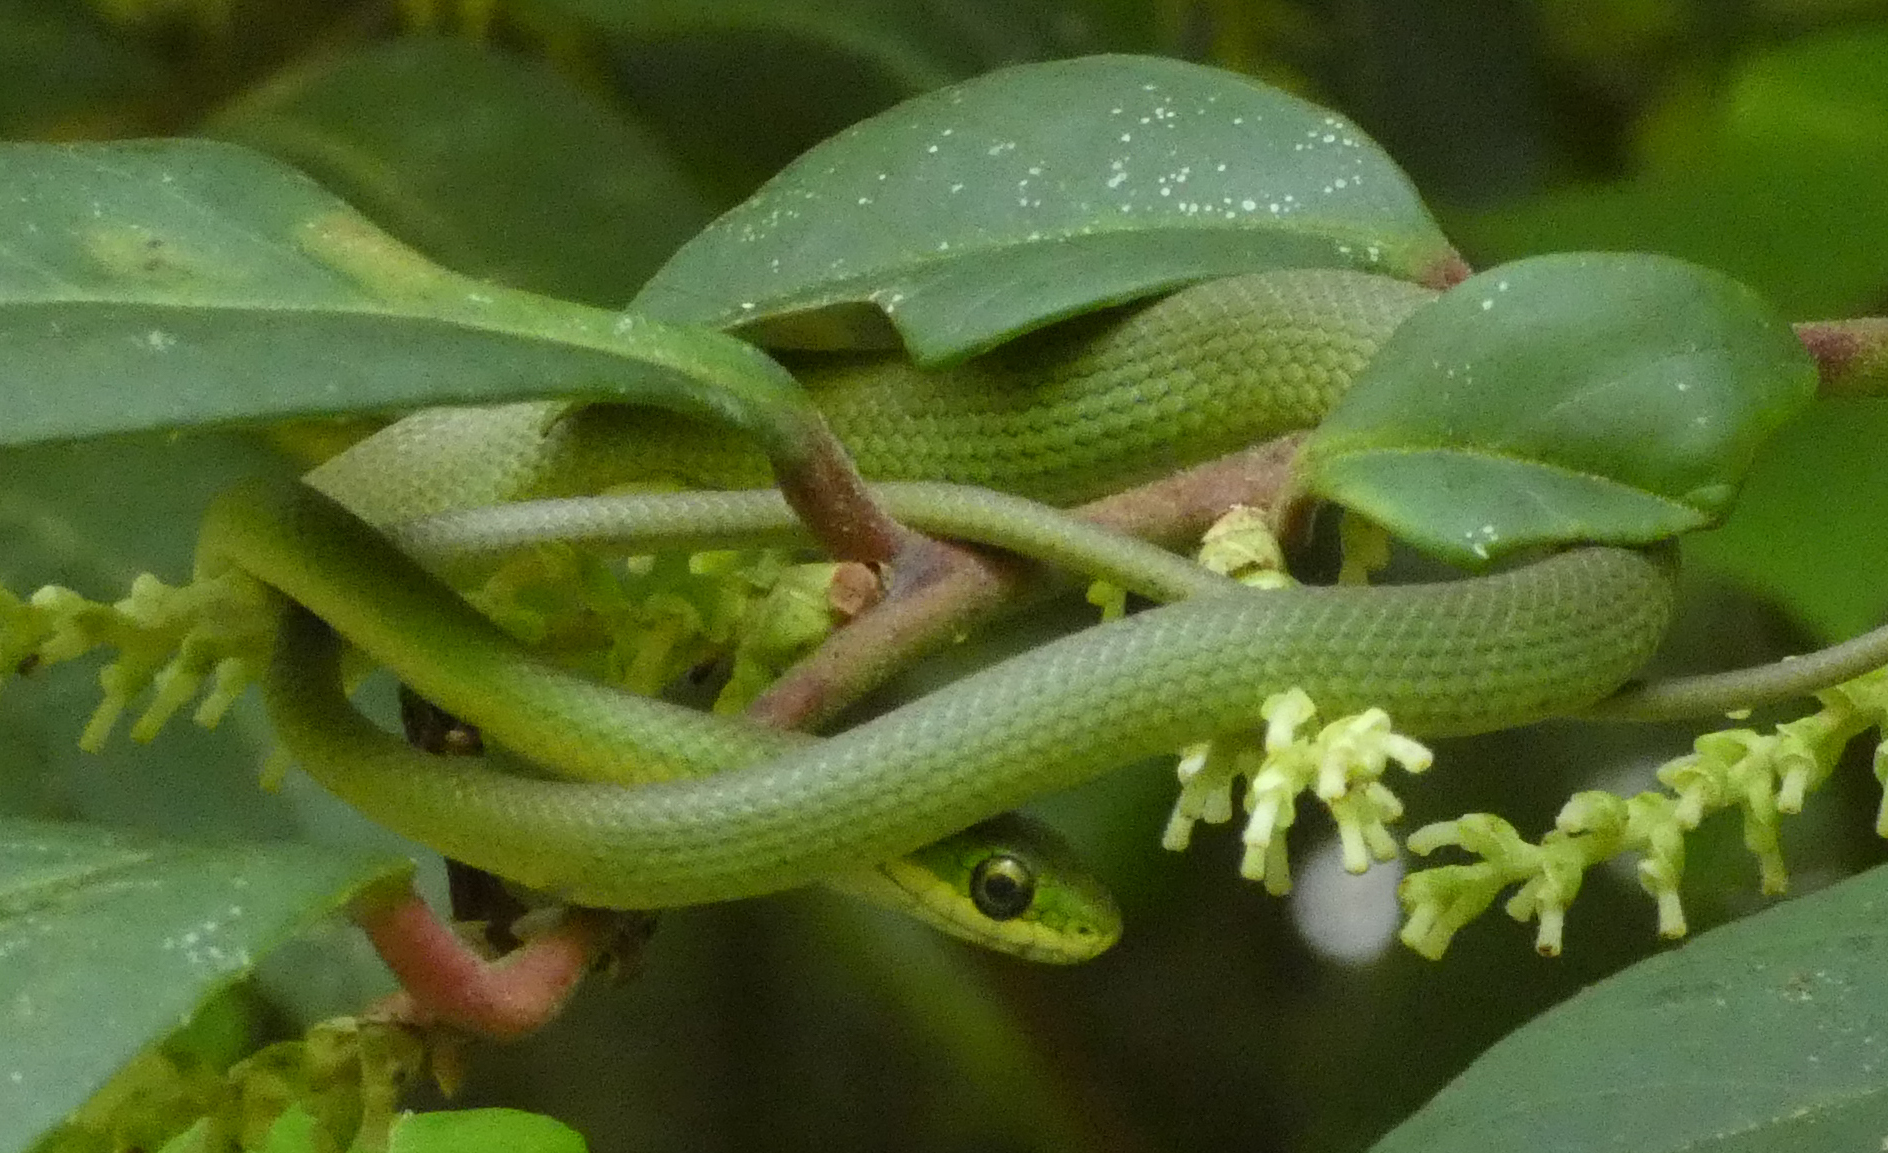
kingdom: Animalia
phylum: Chordata
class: Squamata
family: Colubridae
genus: Opheodrys
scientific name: Opheodrys aestivus
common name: Rough greensnake
